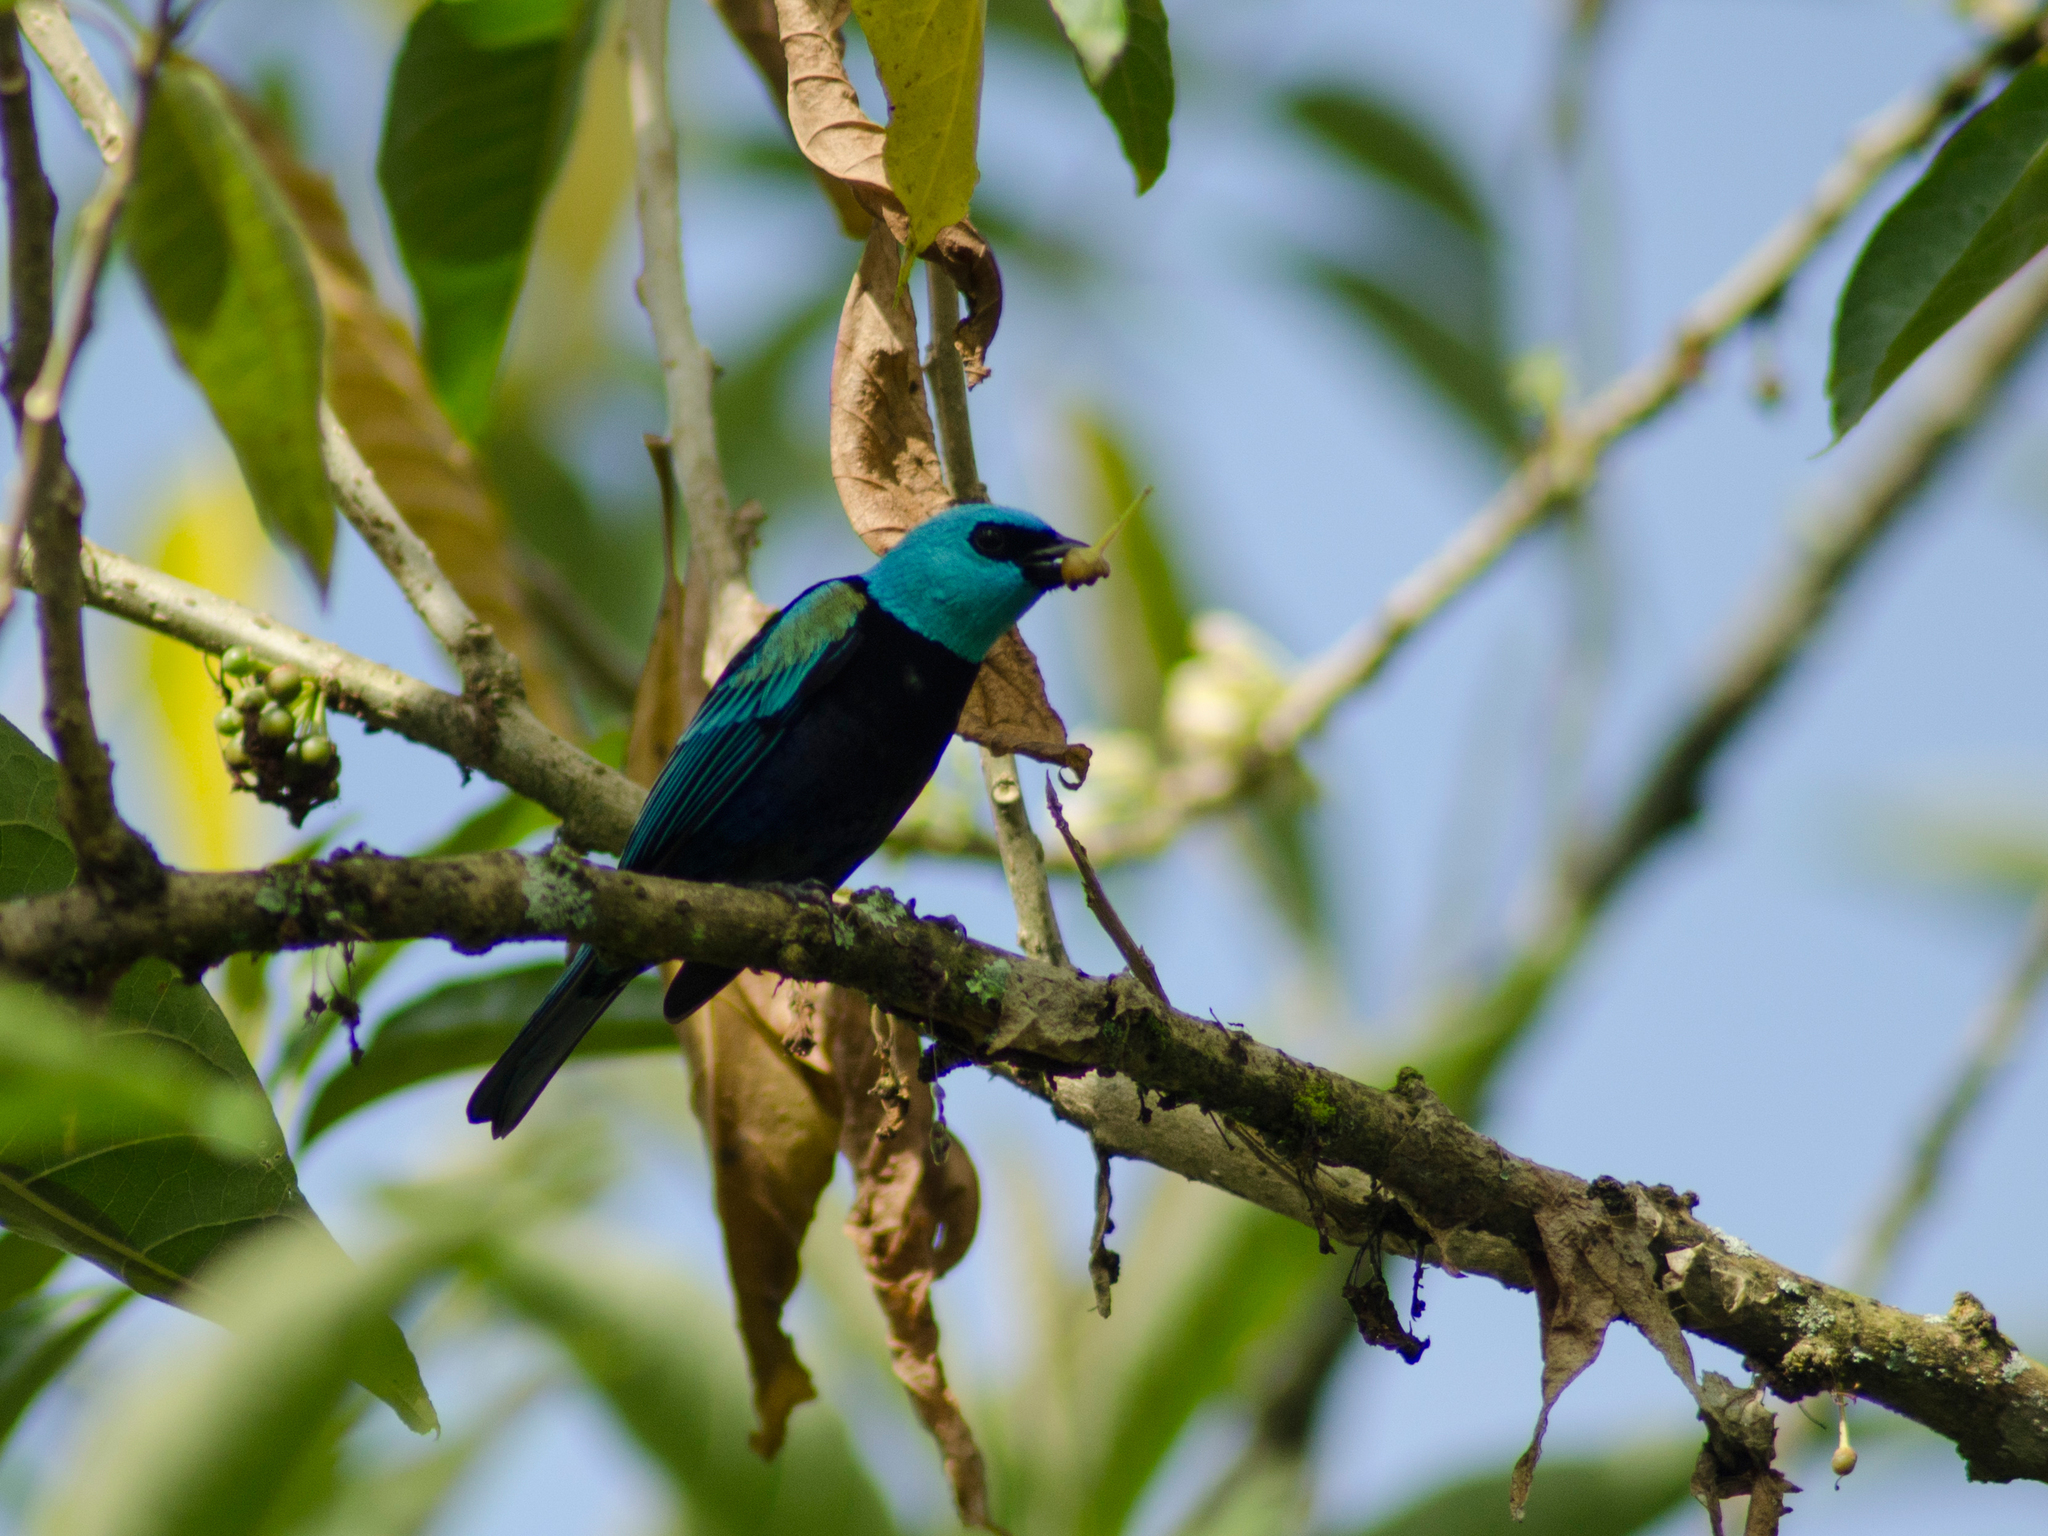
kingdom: Animalia
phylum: Chordata
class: Aves
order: Passeriformes
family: Thraupidae
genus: Stilpnia
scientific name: Stilpnia cyanicollis
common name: Blue-necked tanager
